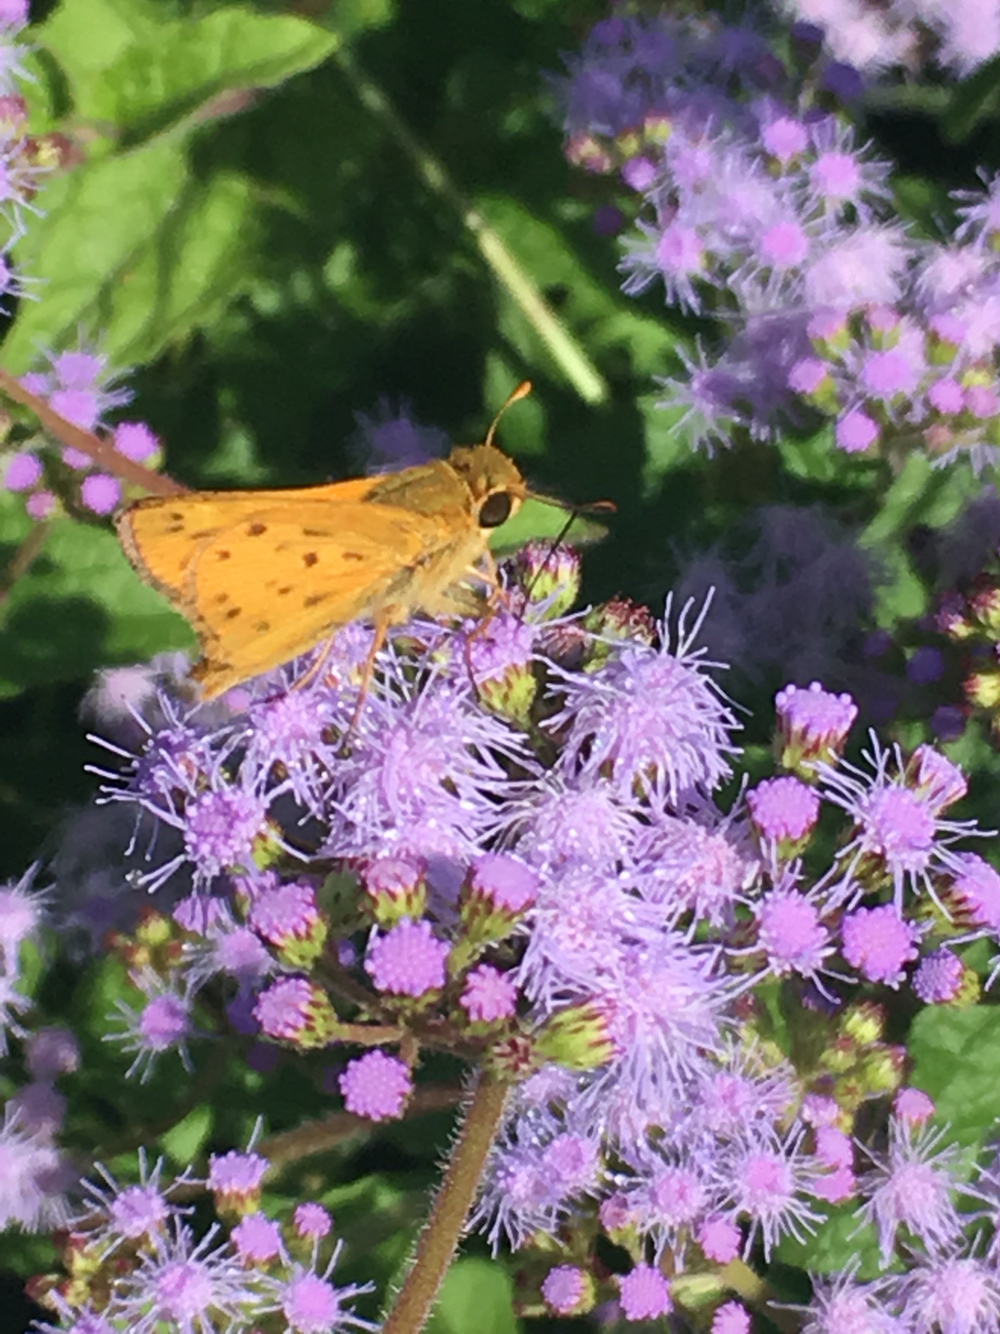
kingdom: Animalia
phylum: Arthropoda
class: Insecta
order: Lepidoptera
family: Hesperiidae
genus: Hylephila
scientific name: Hylephila phyleus
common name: Fiery skipper
